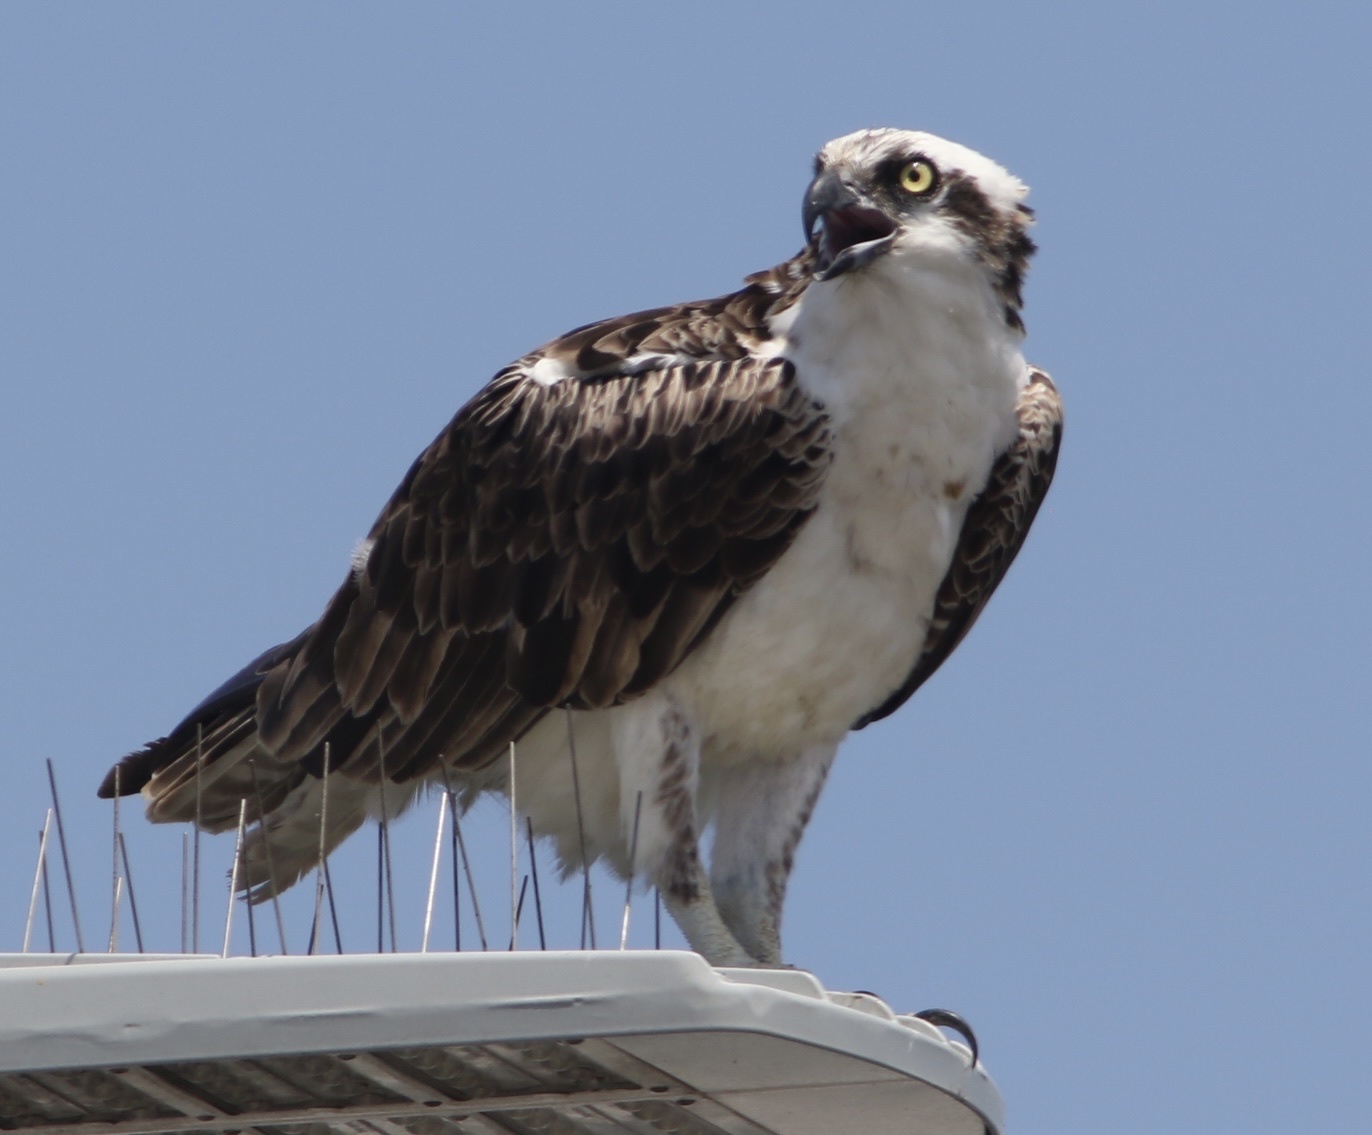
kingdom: Animalia
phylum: Chordata
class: Aves
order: Accipitriformes
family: Pandionidae
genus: Pandion
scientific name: Pandion haliaetus
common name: Osprey
